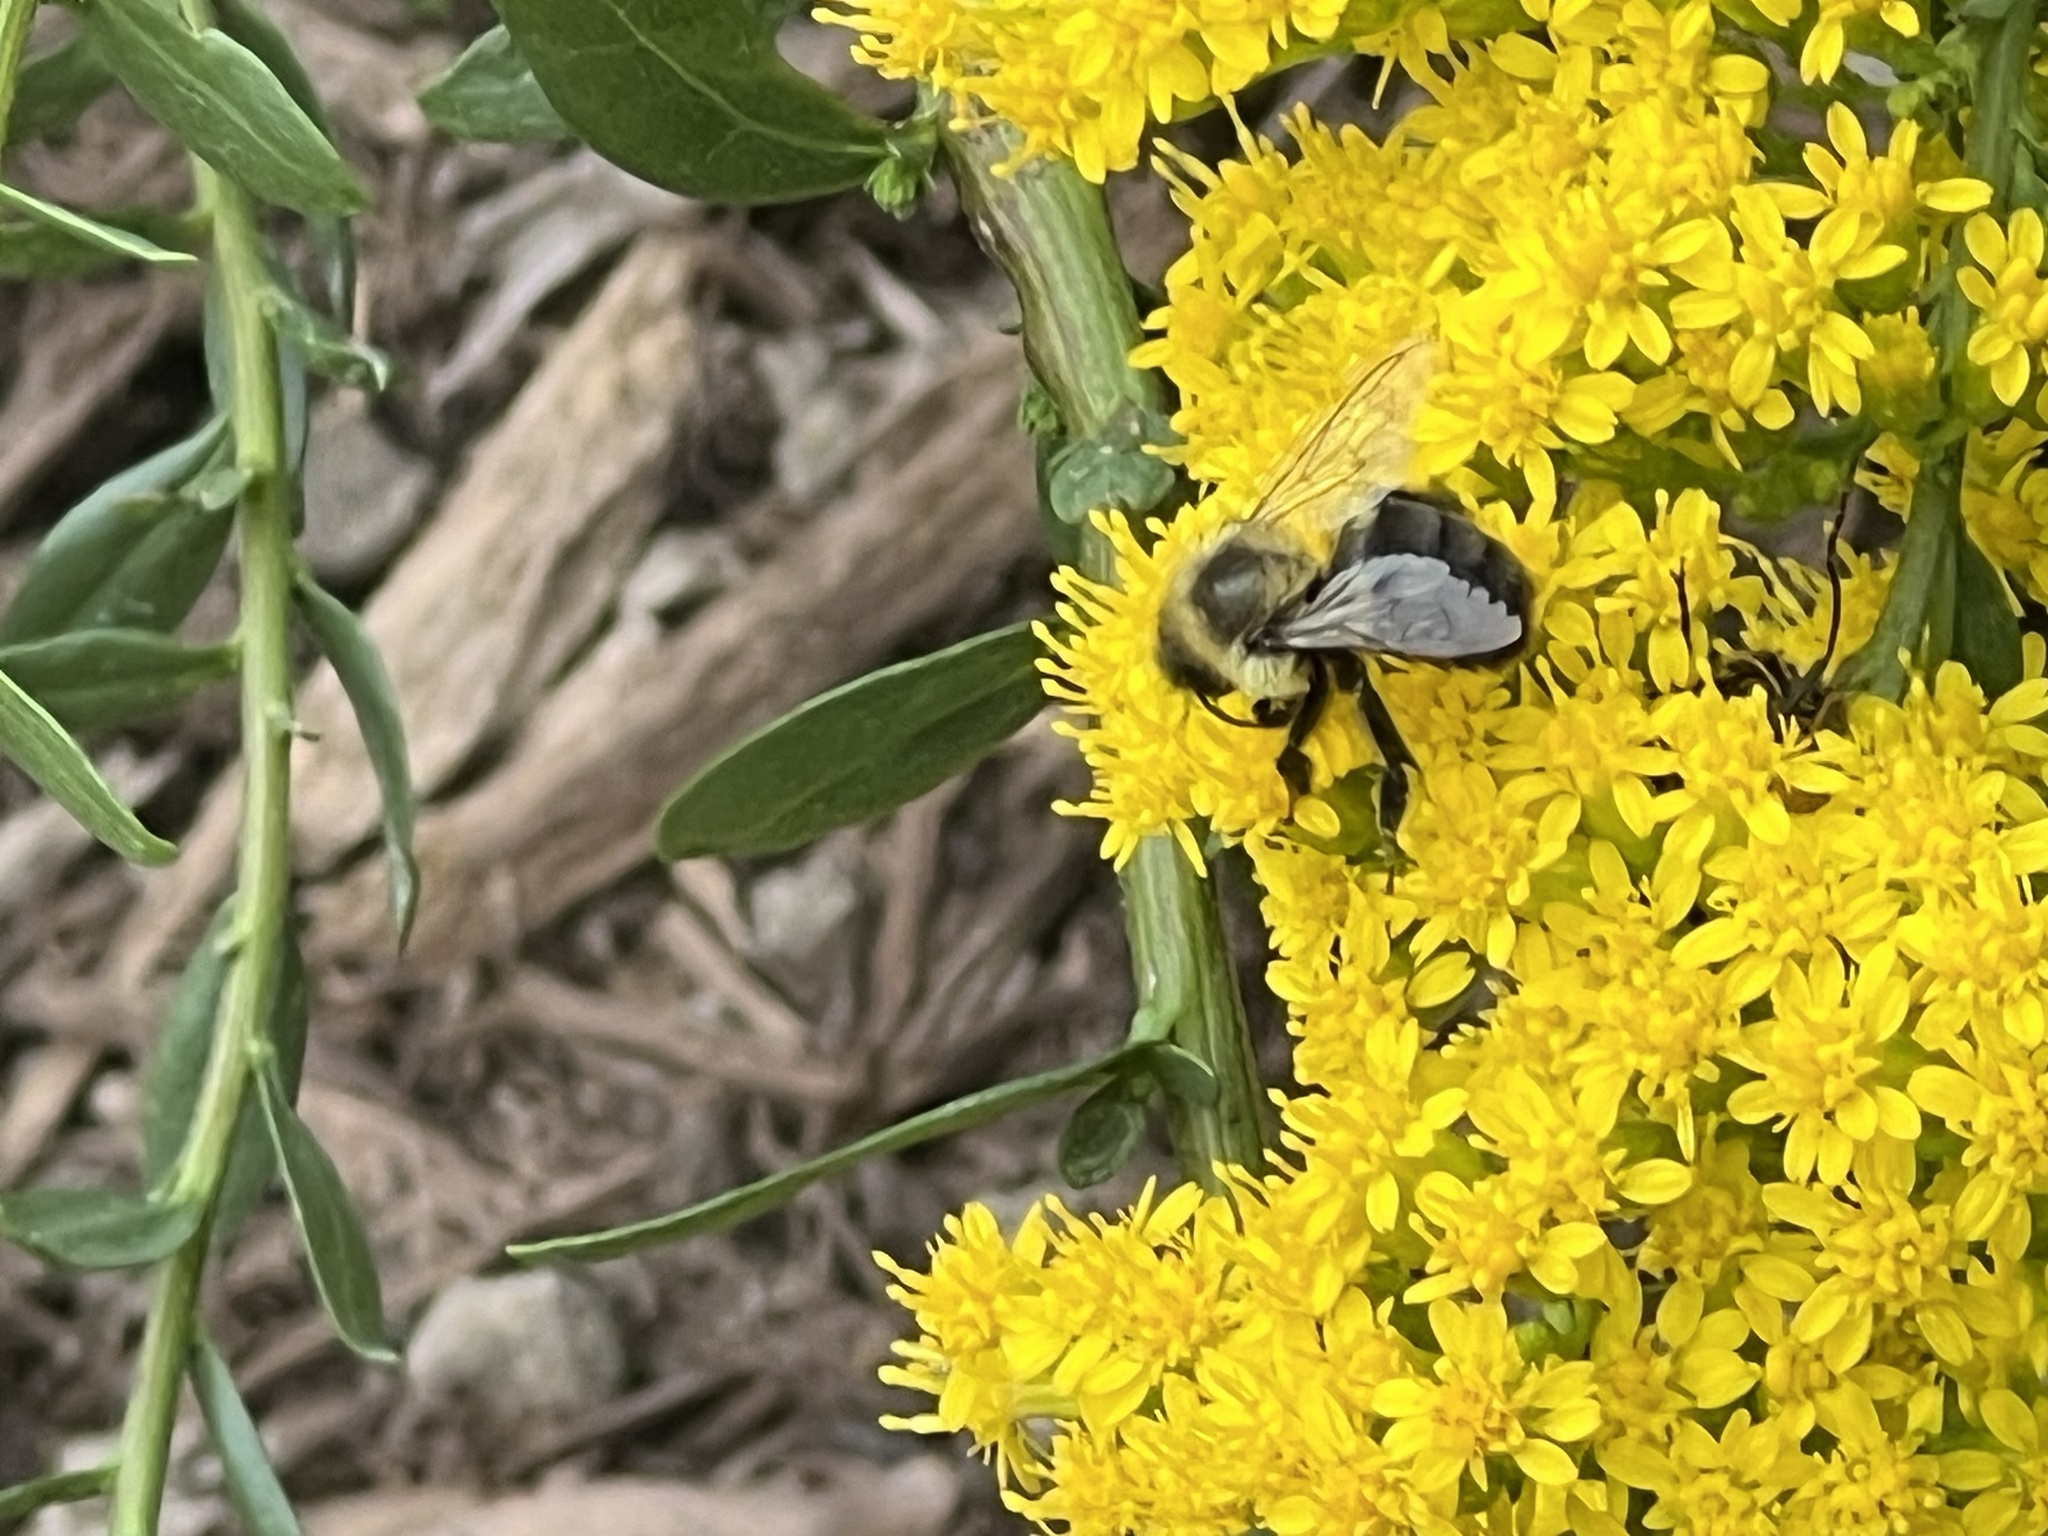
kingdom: Animalia
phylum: Arthropoda
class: Insecta
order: Hymenoptera
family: Apidae
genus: Bombus
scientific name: Bombus impatiens
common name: Common eastern bumble bee
